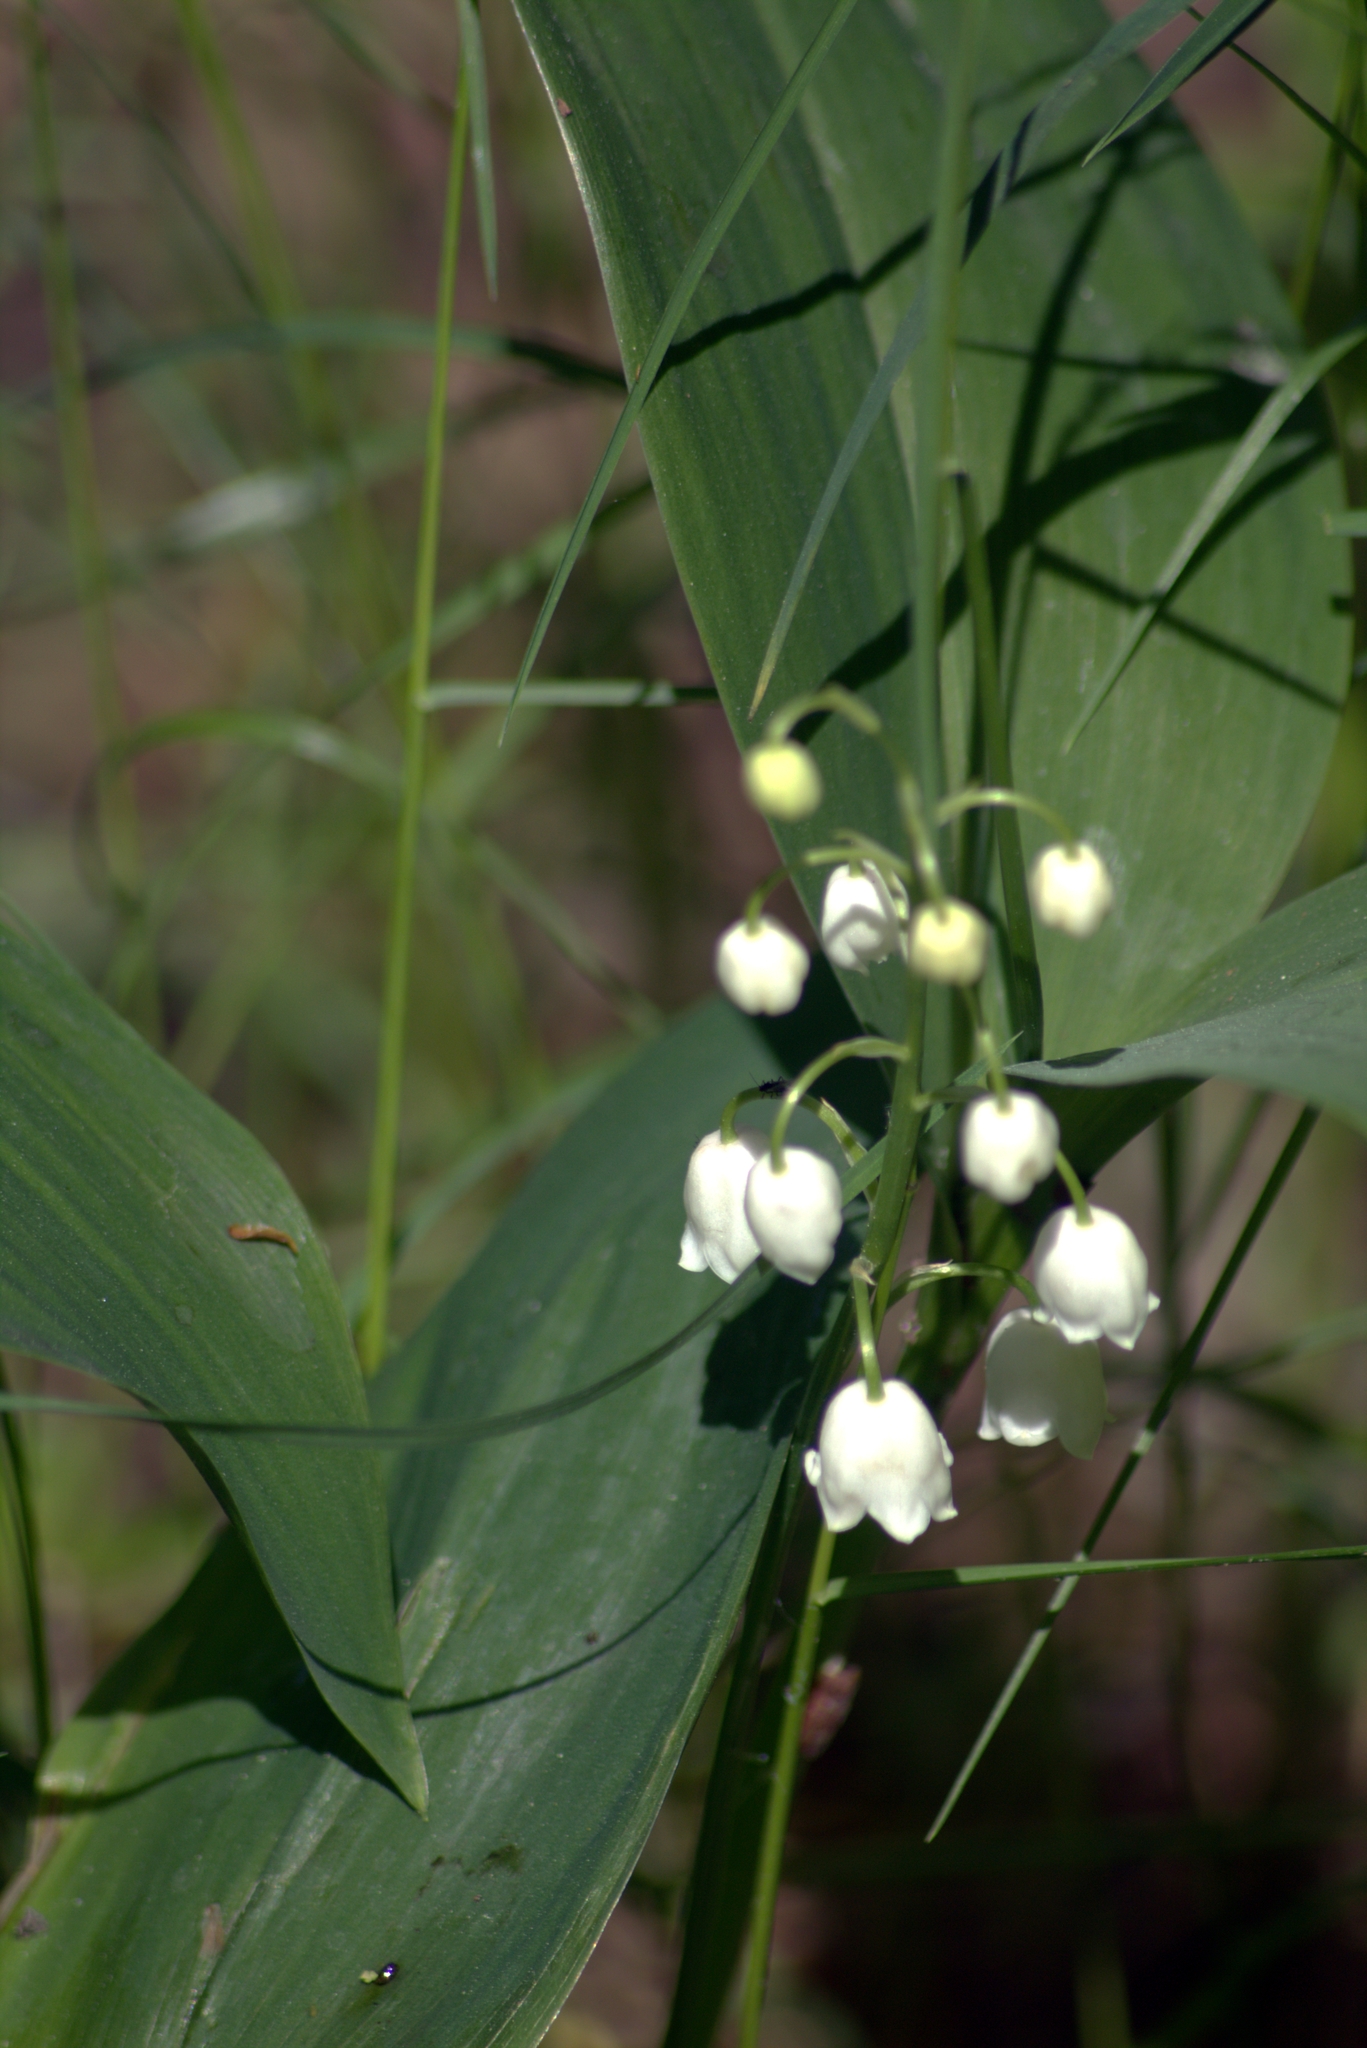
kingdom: Plantae
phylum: Tracheophyta
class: Liliopsida
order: Asparagales
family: Asparagaceae
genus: Convallaria
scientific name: Convallaria majalis
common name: Lily-of-the-valley
